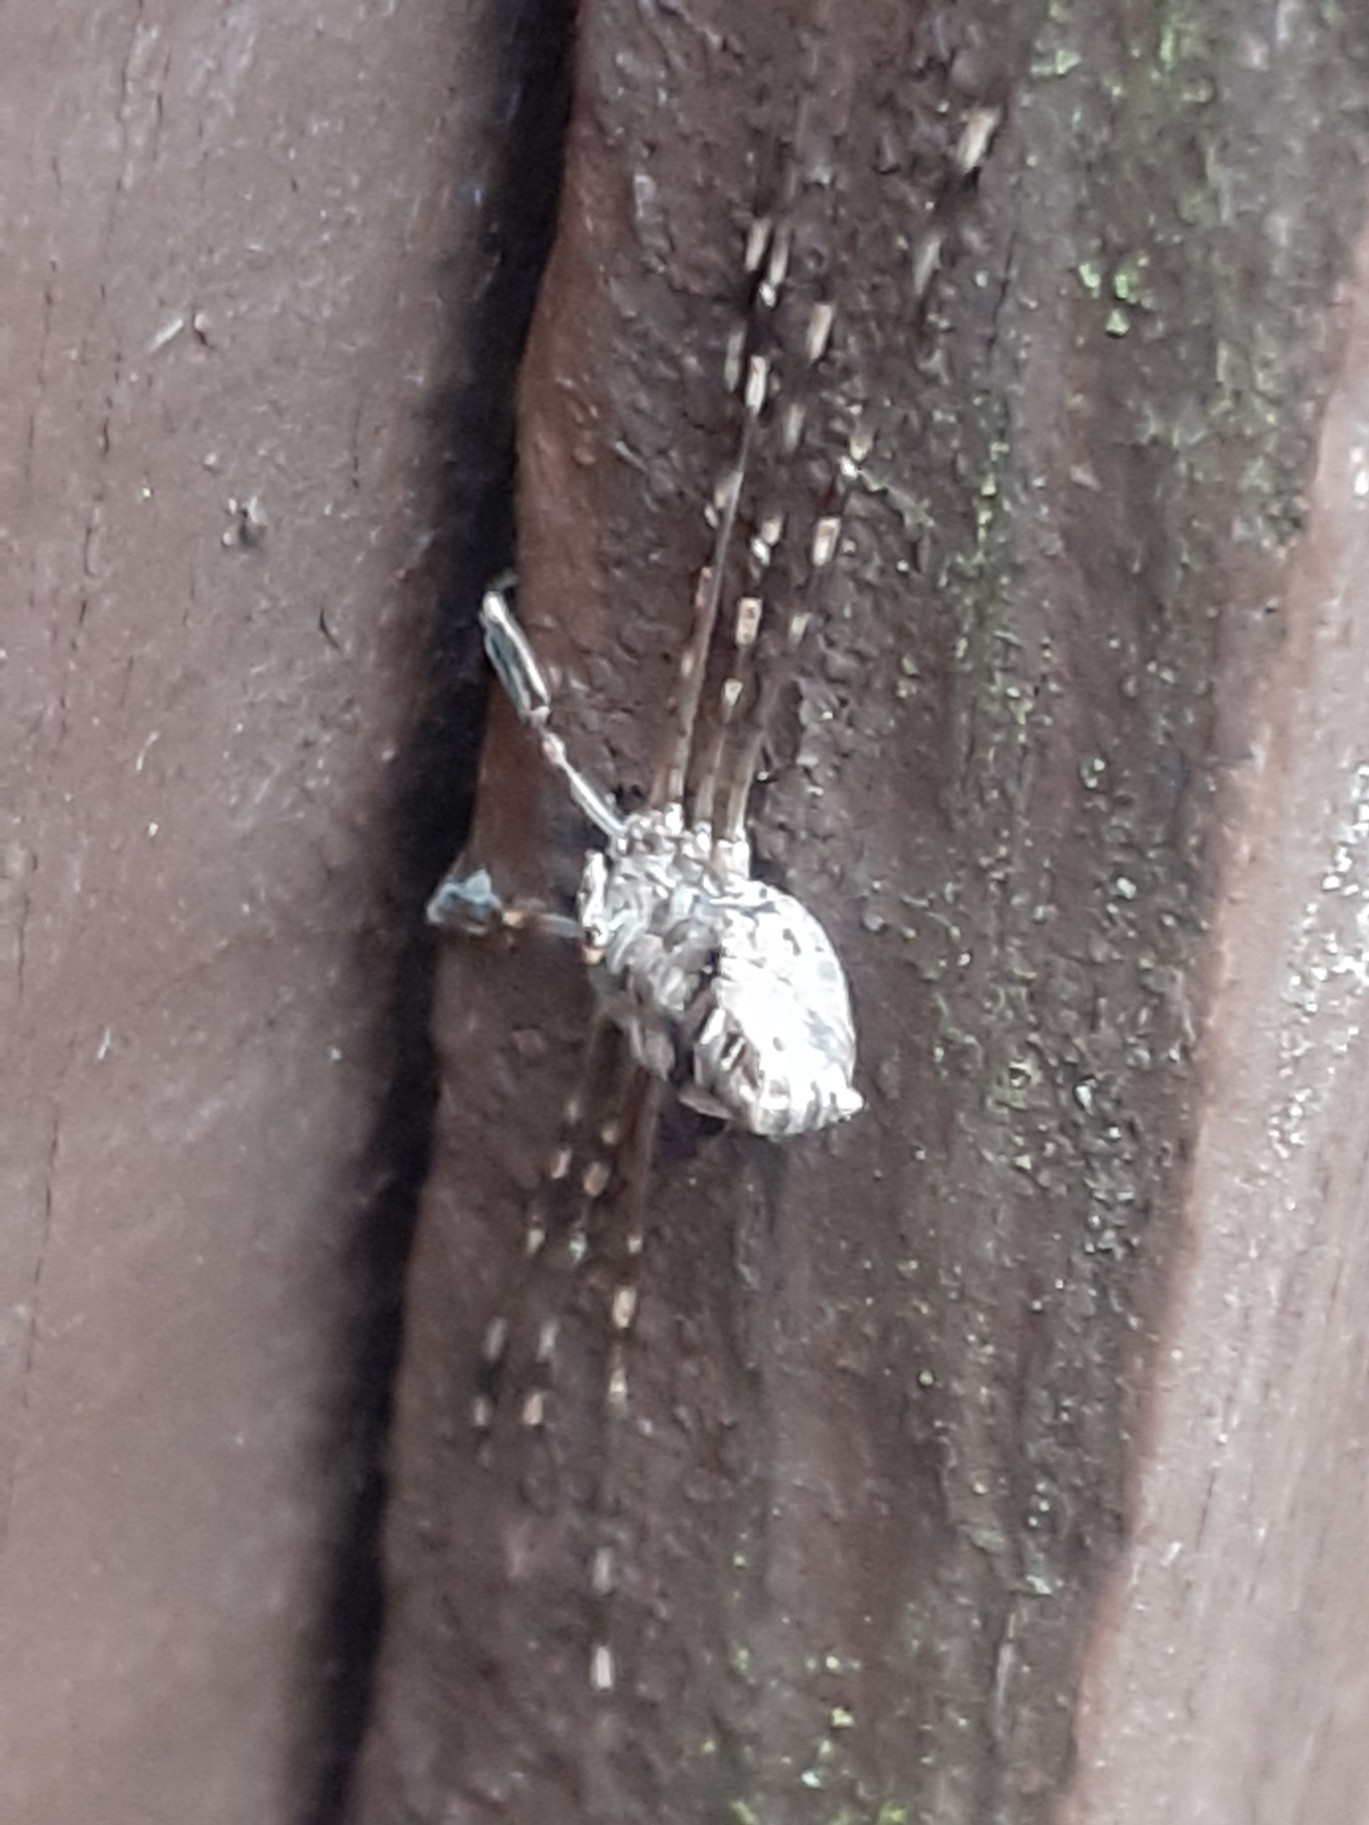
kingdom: Animalia
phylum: Arthropoda
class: Arachnida
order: Opiliones
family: Phalangiidae
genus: Dicranopalpus
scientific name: Dicranopalpus ramosus
